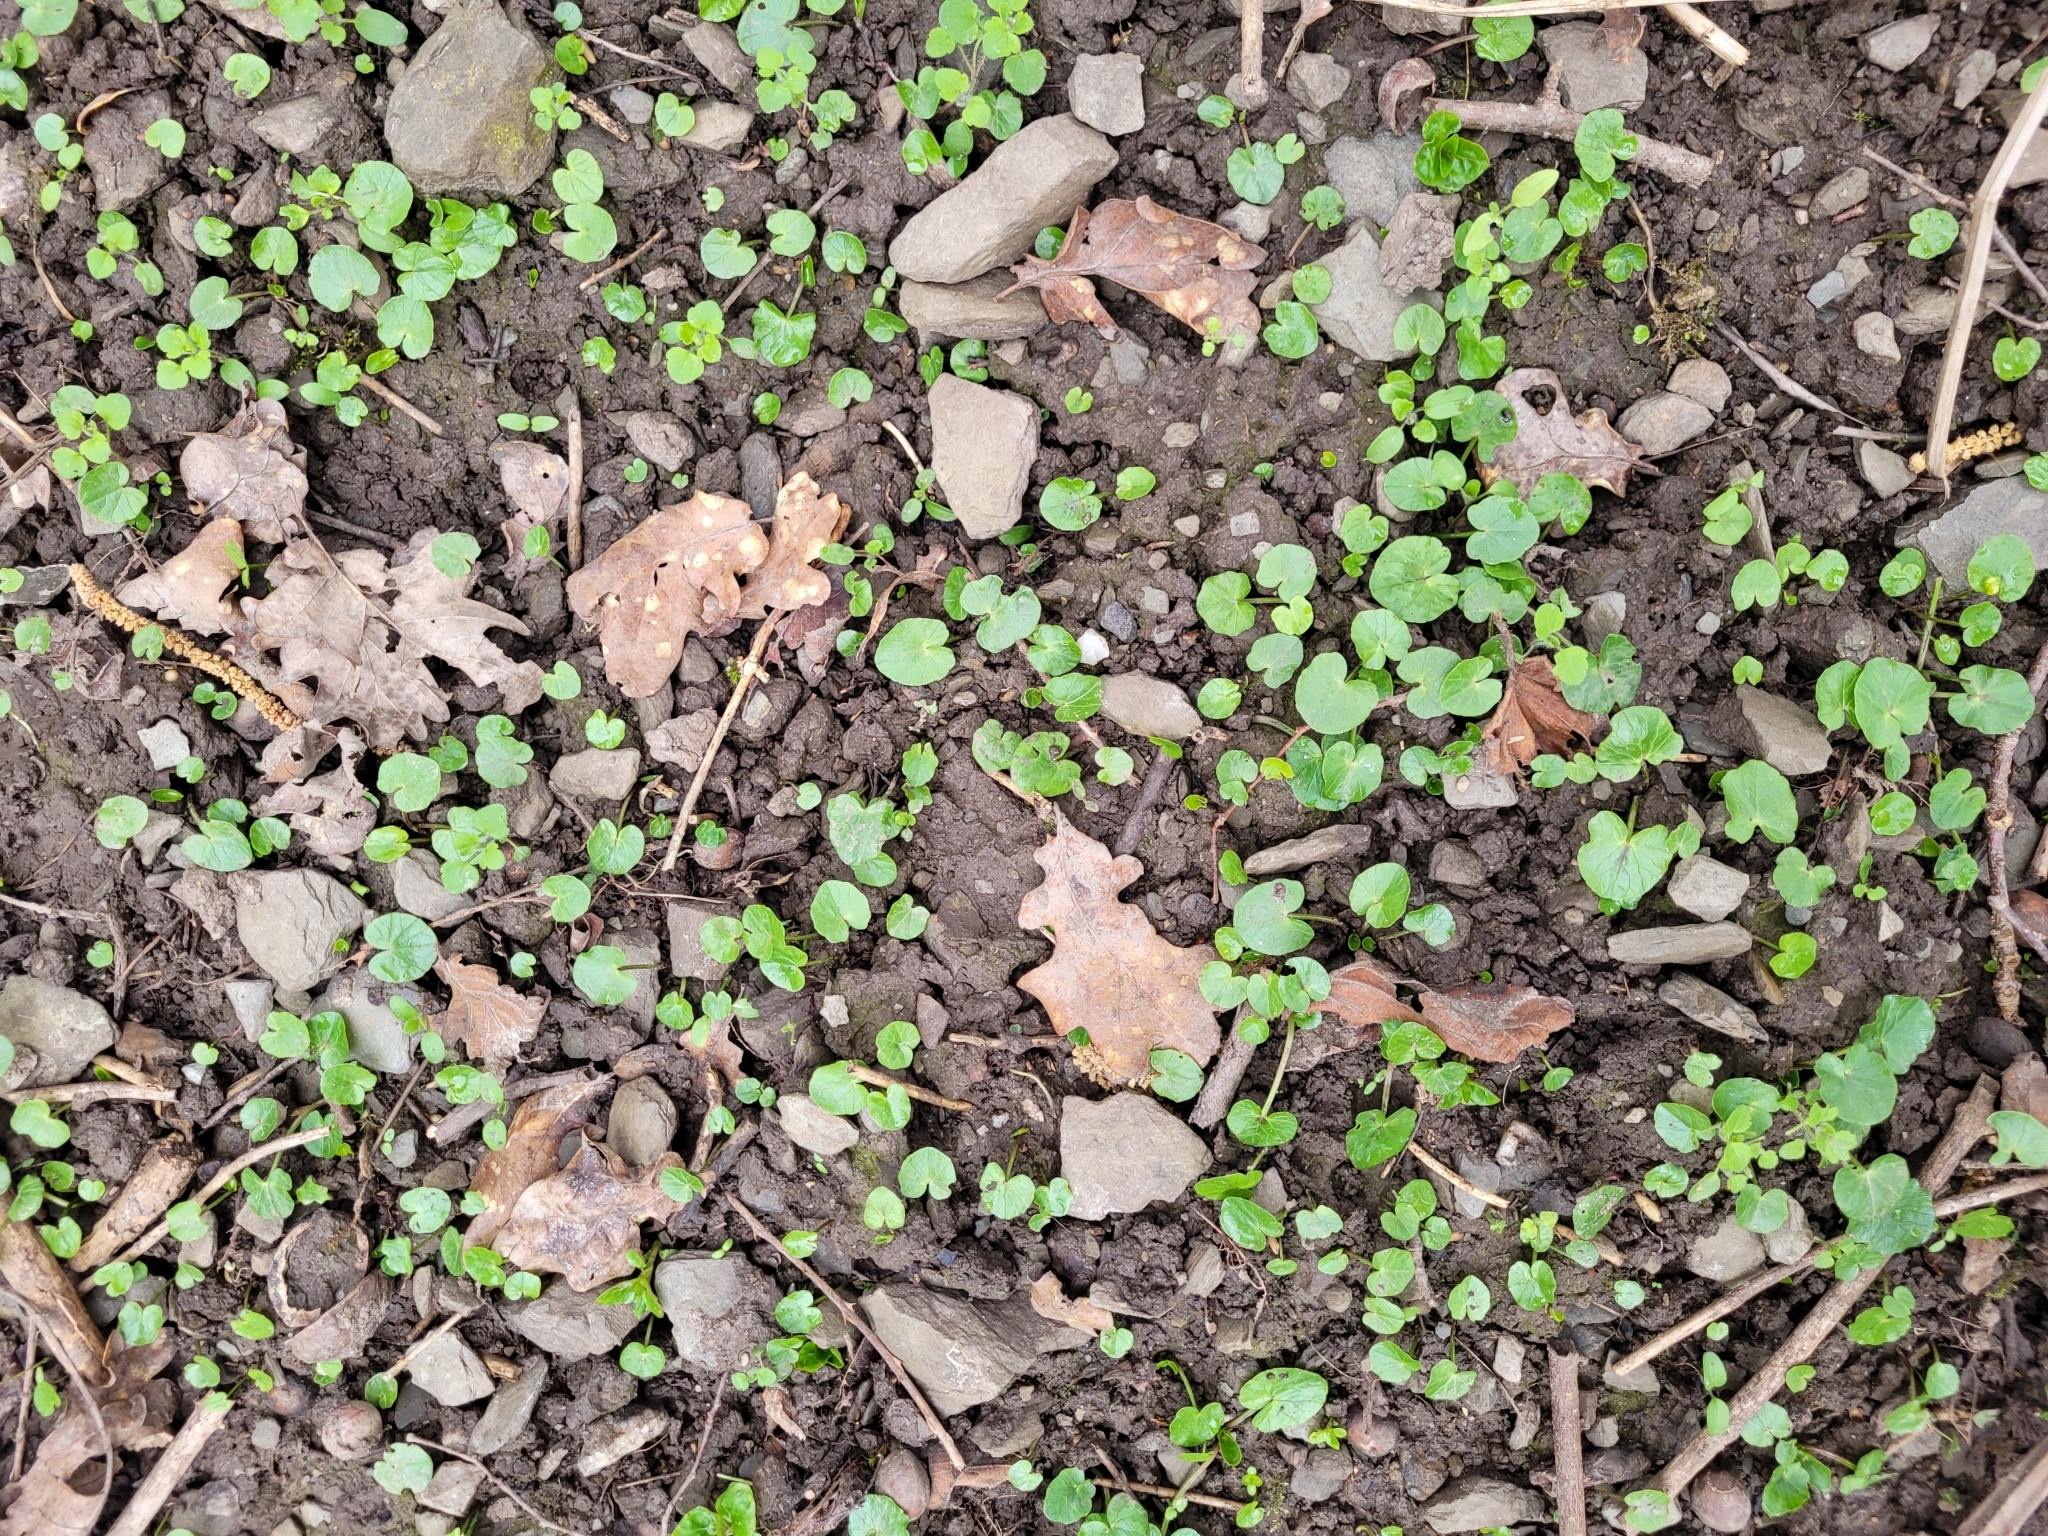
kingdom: Plantae
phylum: Tracheophyta
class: Magnoliopsida
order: Ranunculales
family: Ranunculaceae
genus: Ficaria
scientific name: Ficaria verna
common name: Lesser celandine
